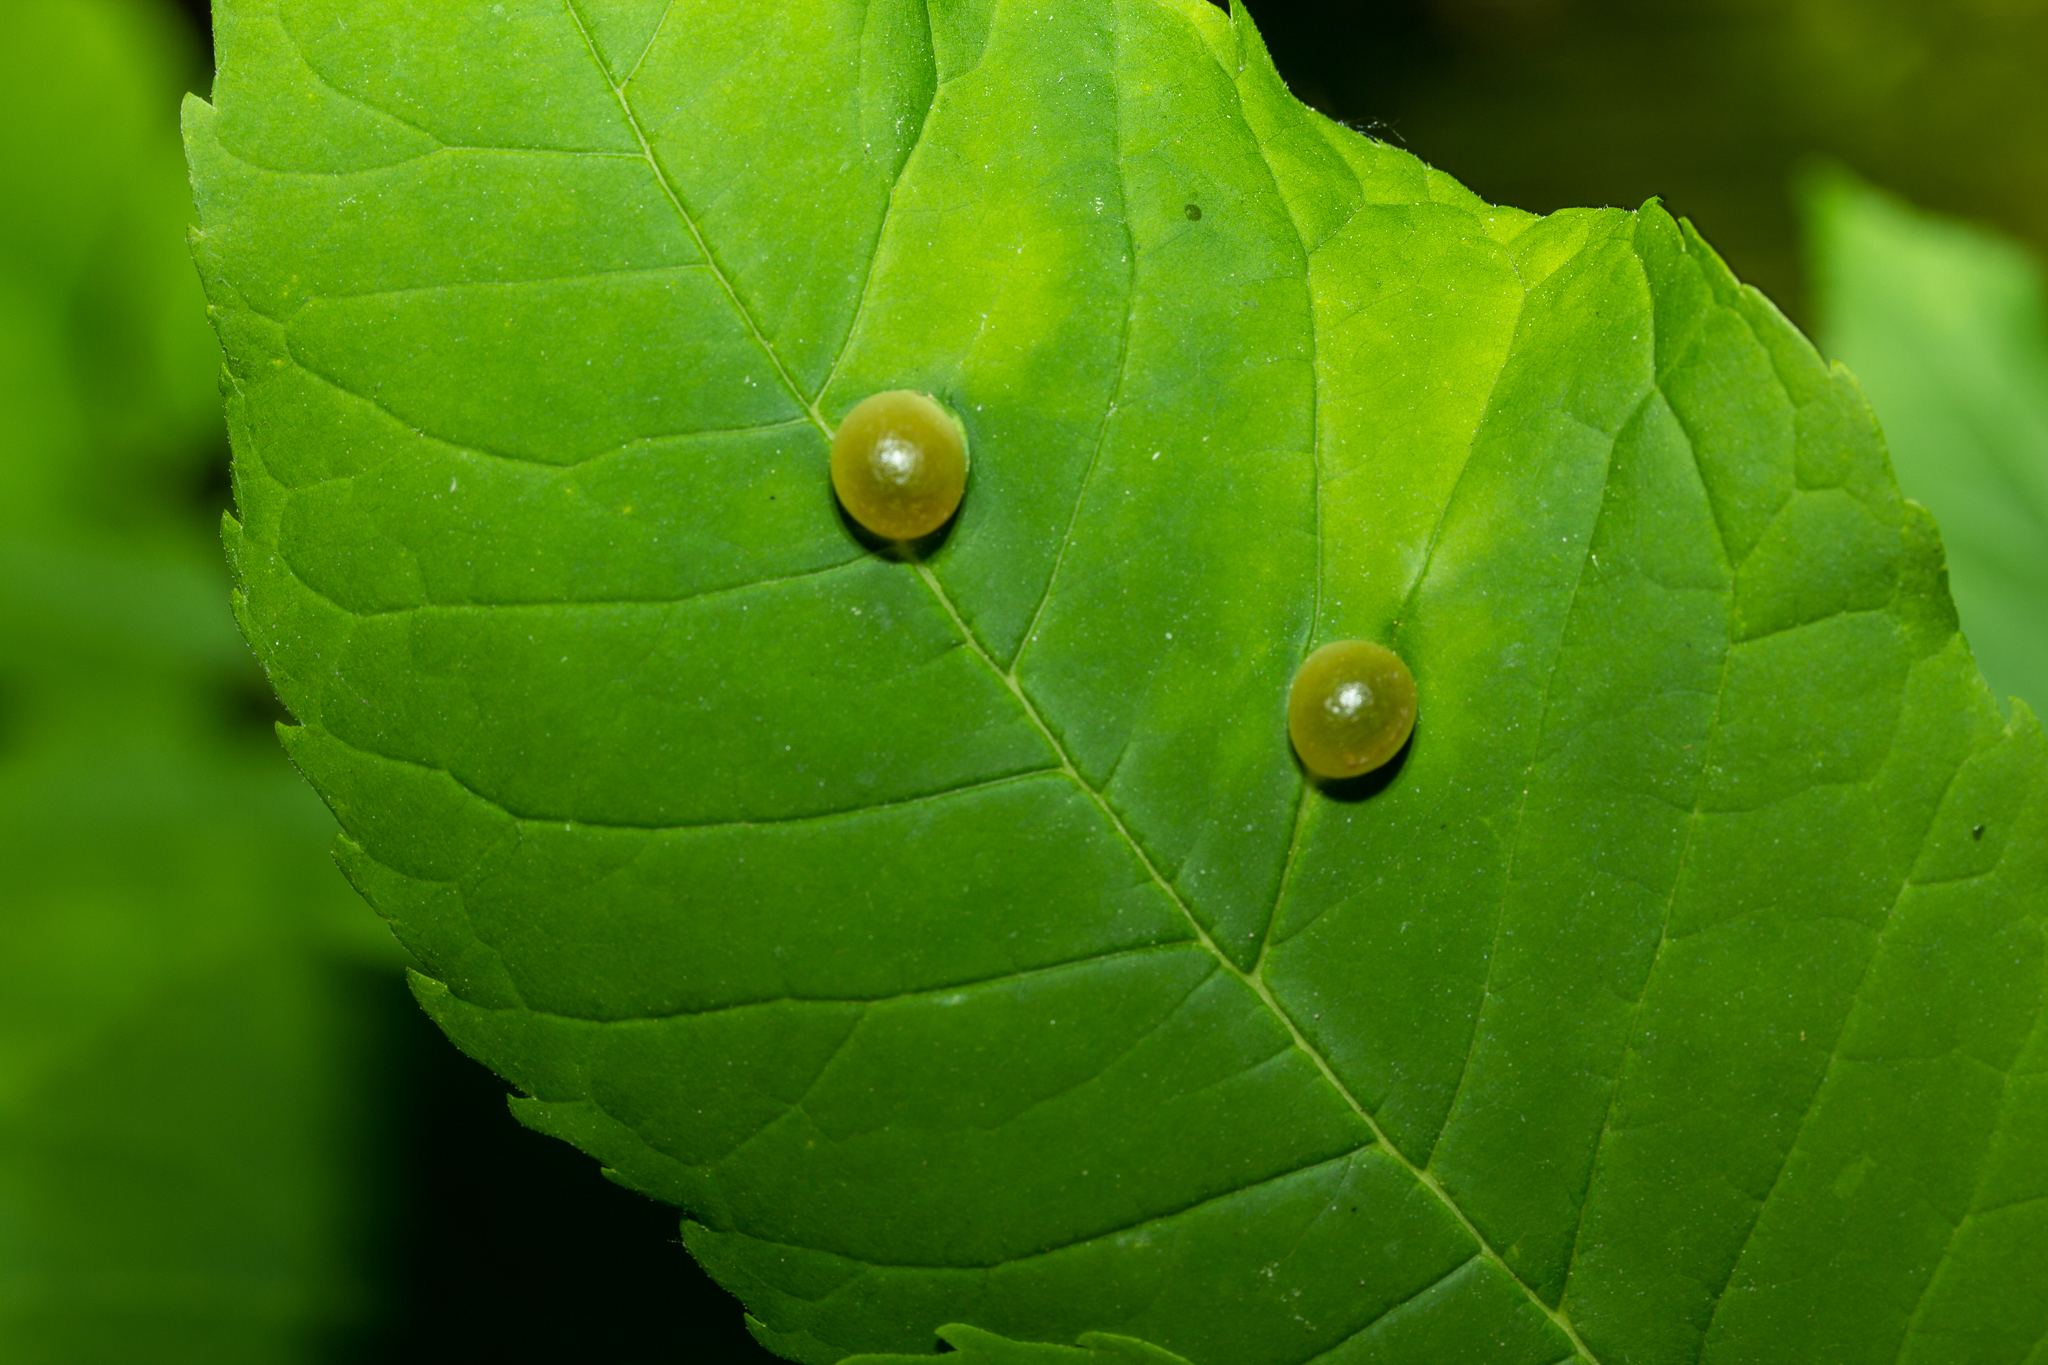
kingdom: Animalia
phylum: Arthropoda
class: Insecta
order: Diptera
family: Cecidomyiidae
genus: Dasineura
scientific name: Dasineura pellex
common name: Ash bullet gall midge
